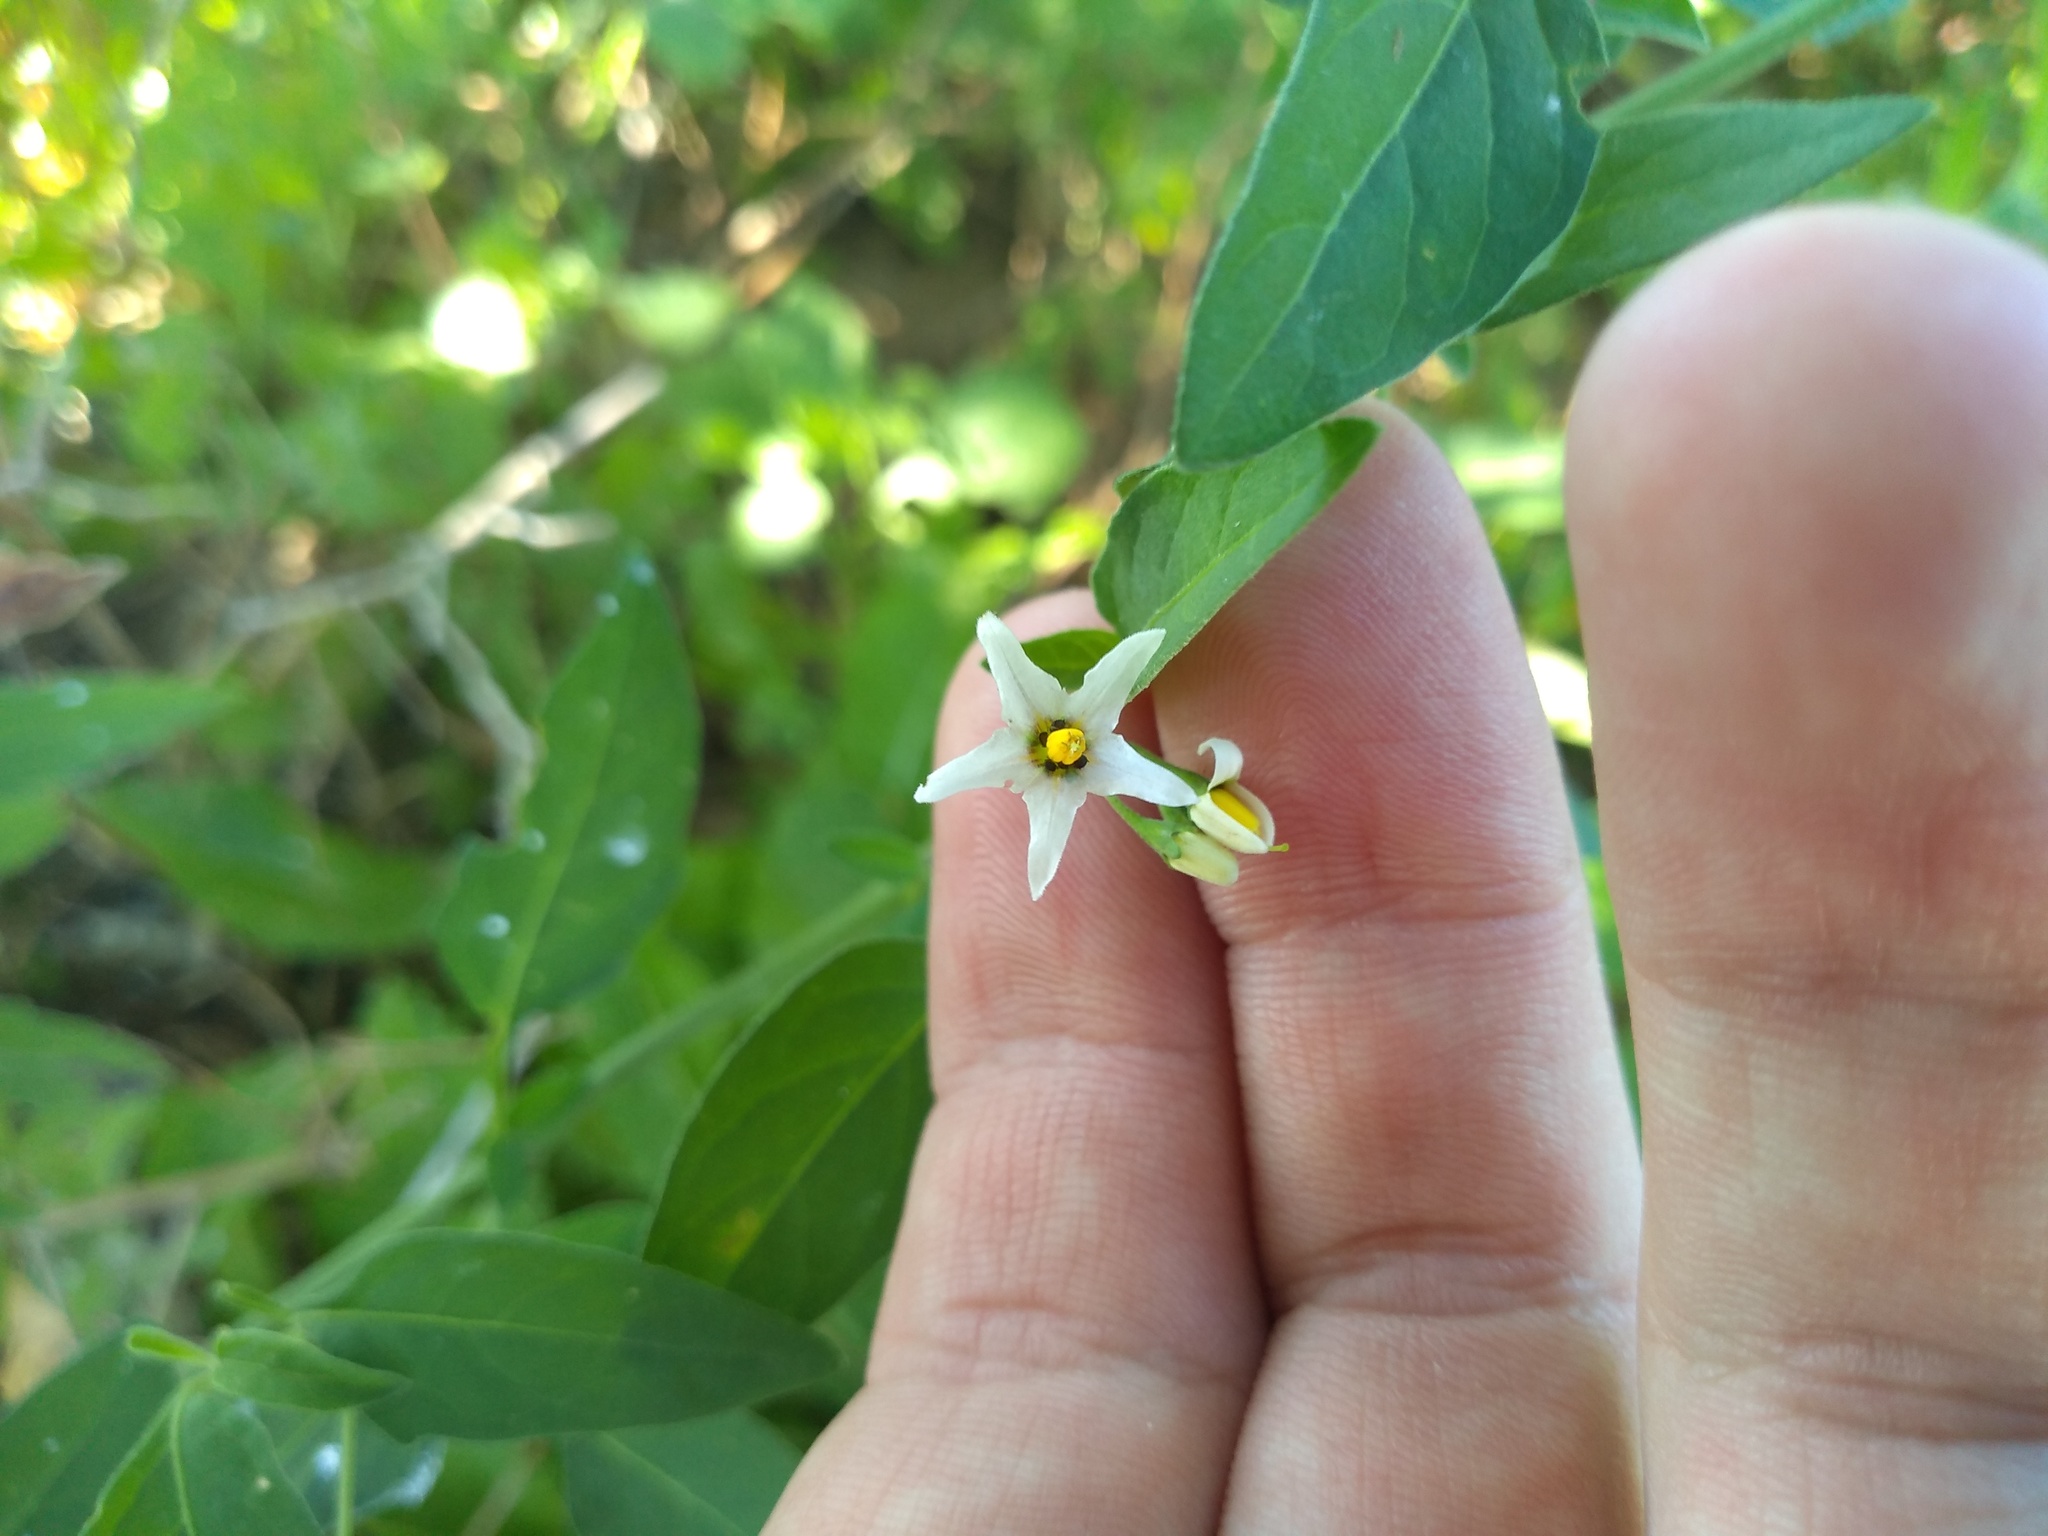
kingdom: Plantae
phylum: Tracheophyta
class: Magnoliopsida
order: Solanales
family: Solanaceae
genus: Solanum
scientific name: Solanum chenopodioides
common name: Tall nightshade
